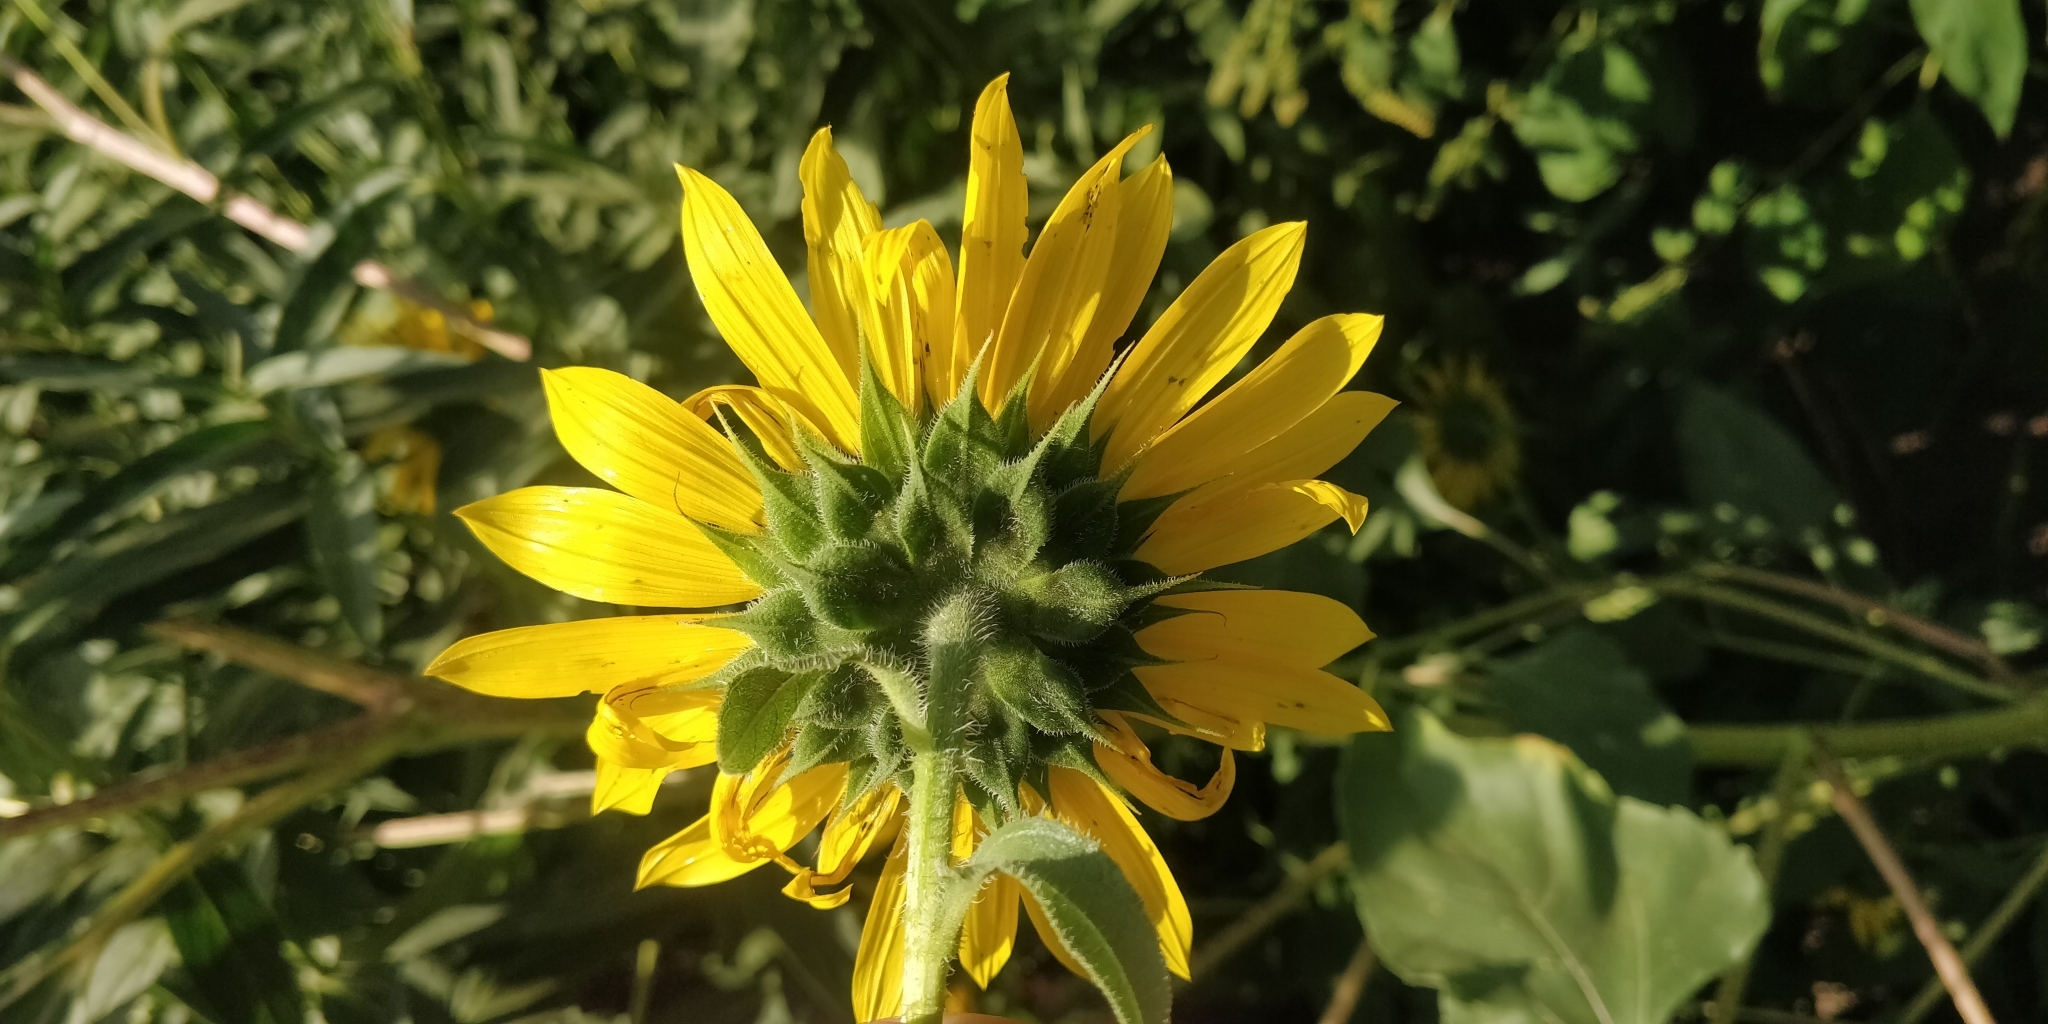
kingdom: Plantae
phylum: Tracheophyta
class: Magnoliopsida
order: Asterales
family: Asteraceae
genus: Helianthus
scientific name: Helianthus annuus
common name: Sunflower
